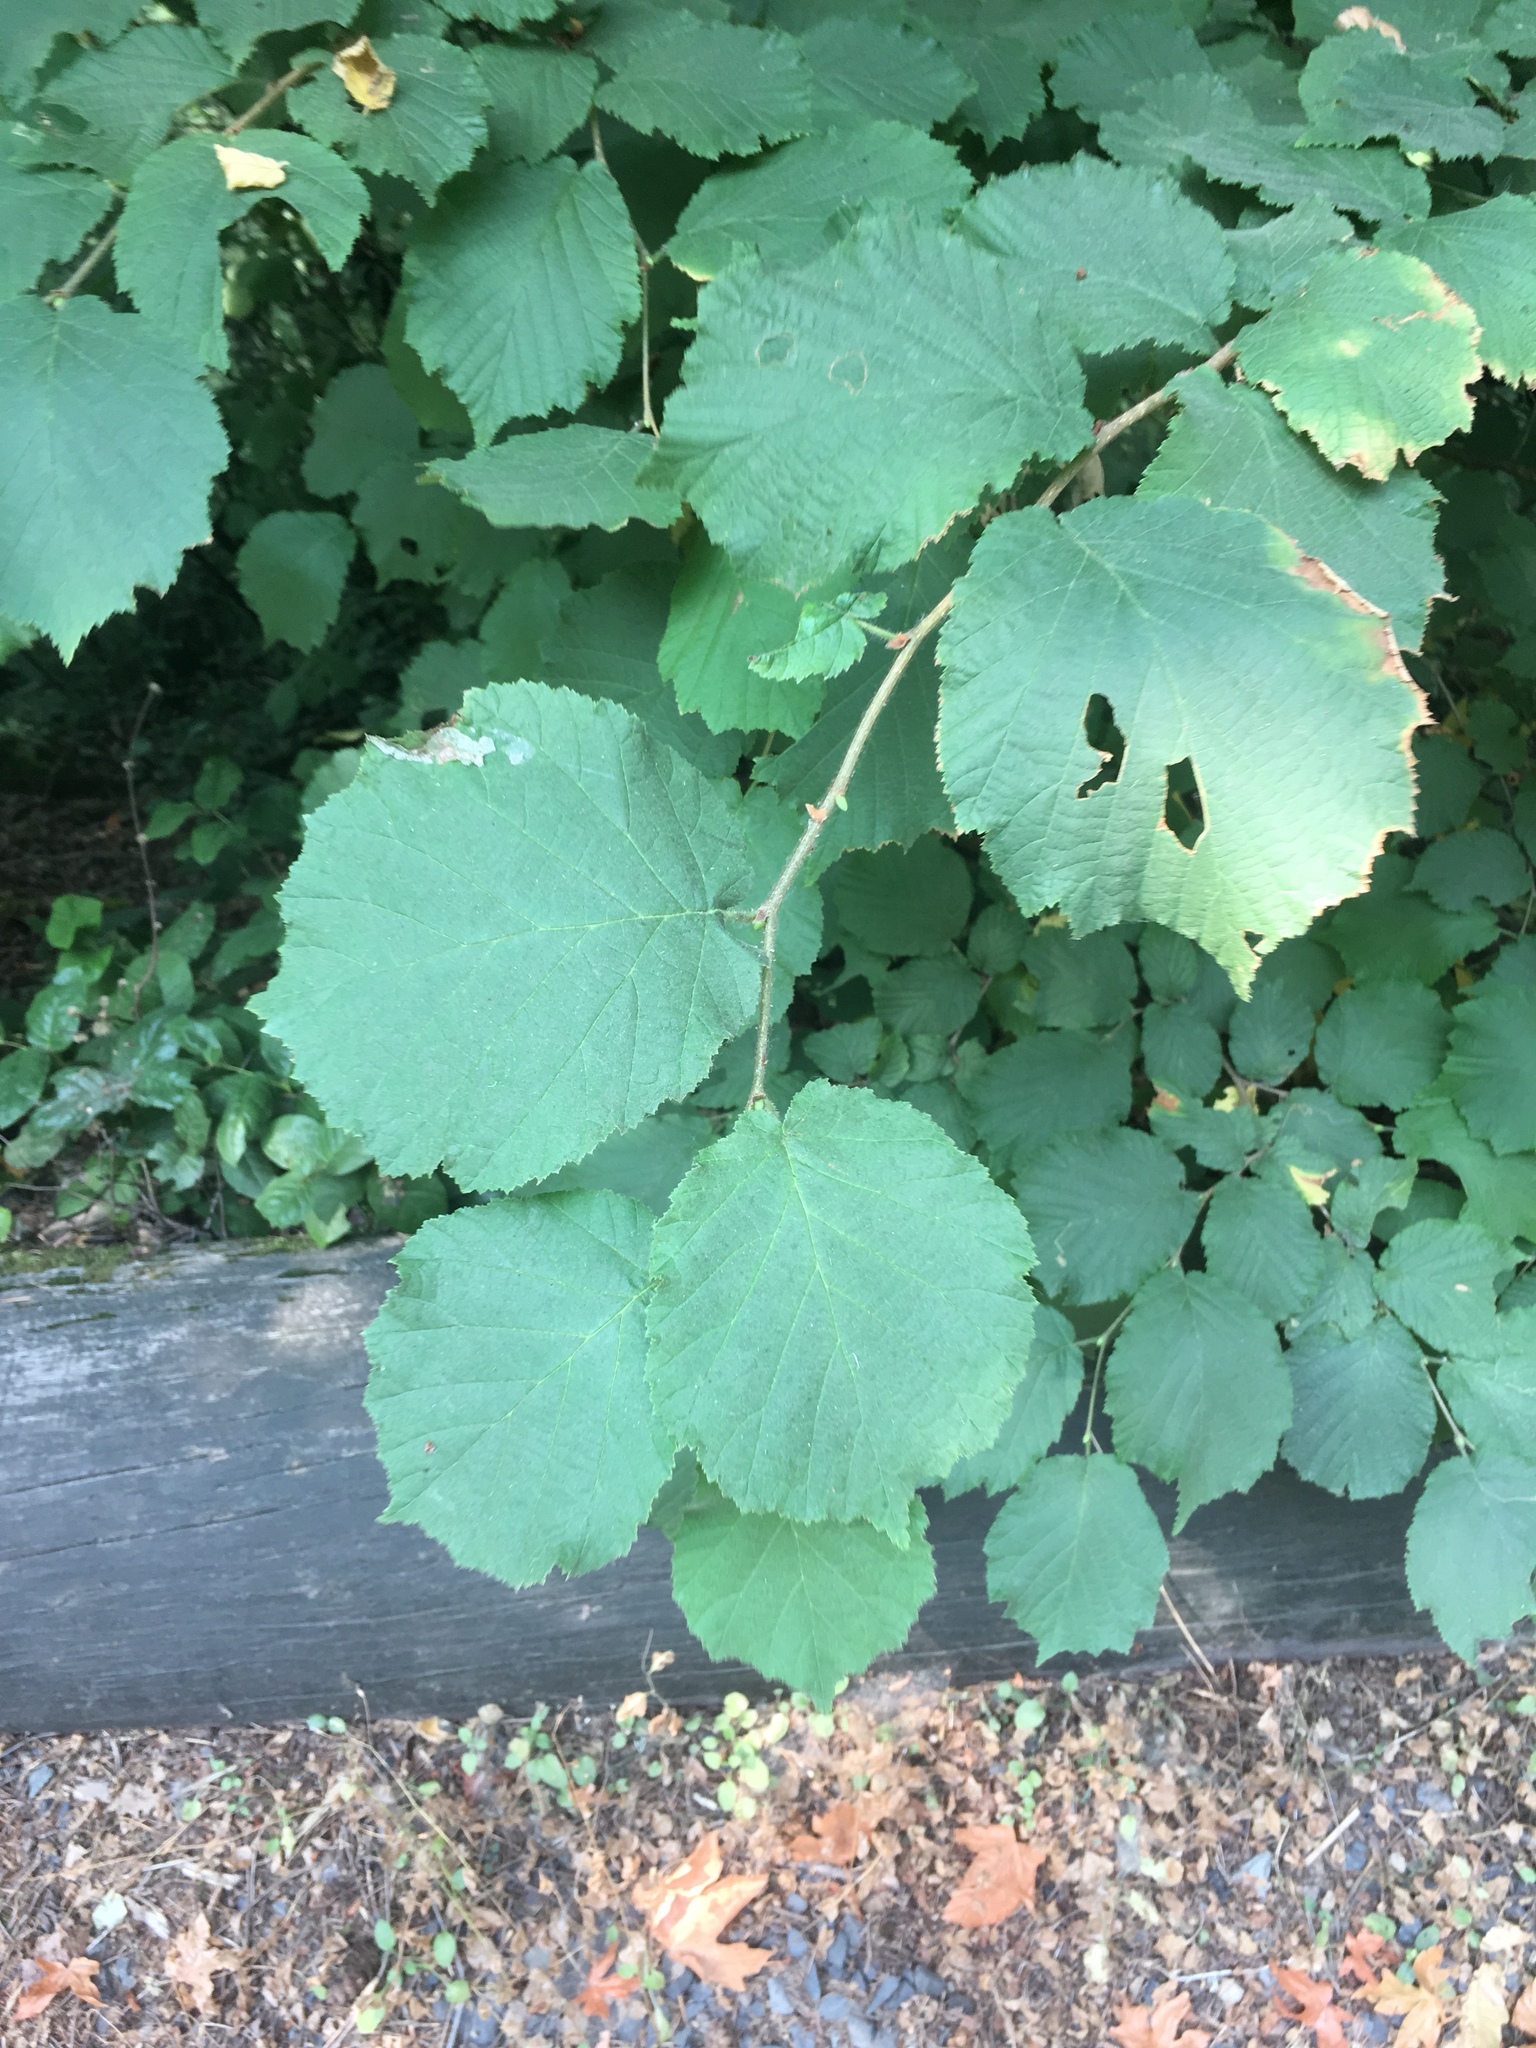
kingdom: Plantae
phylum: Tracheophyta
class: Magnoliopsida
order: Fagales
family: Betulaceae
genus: Corylus
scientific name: Corylus avellana
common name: European hazel
